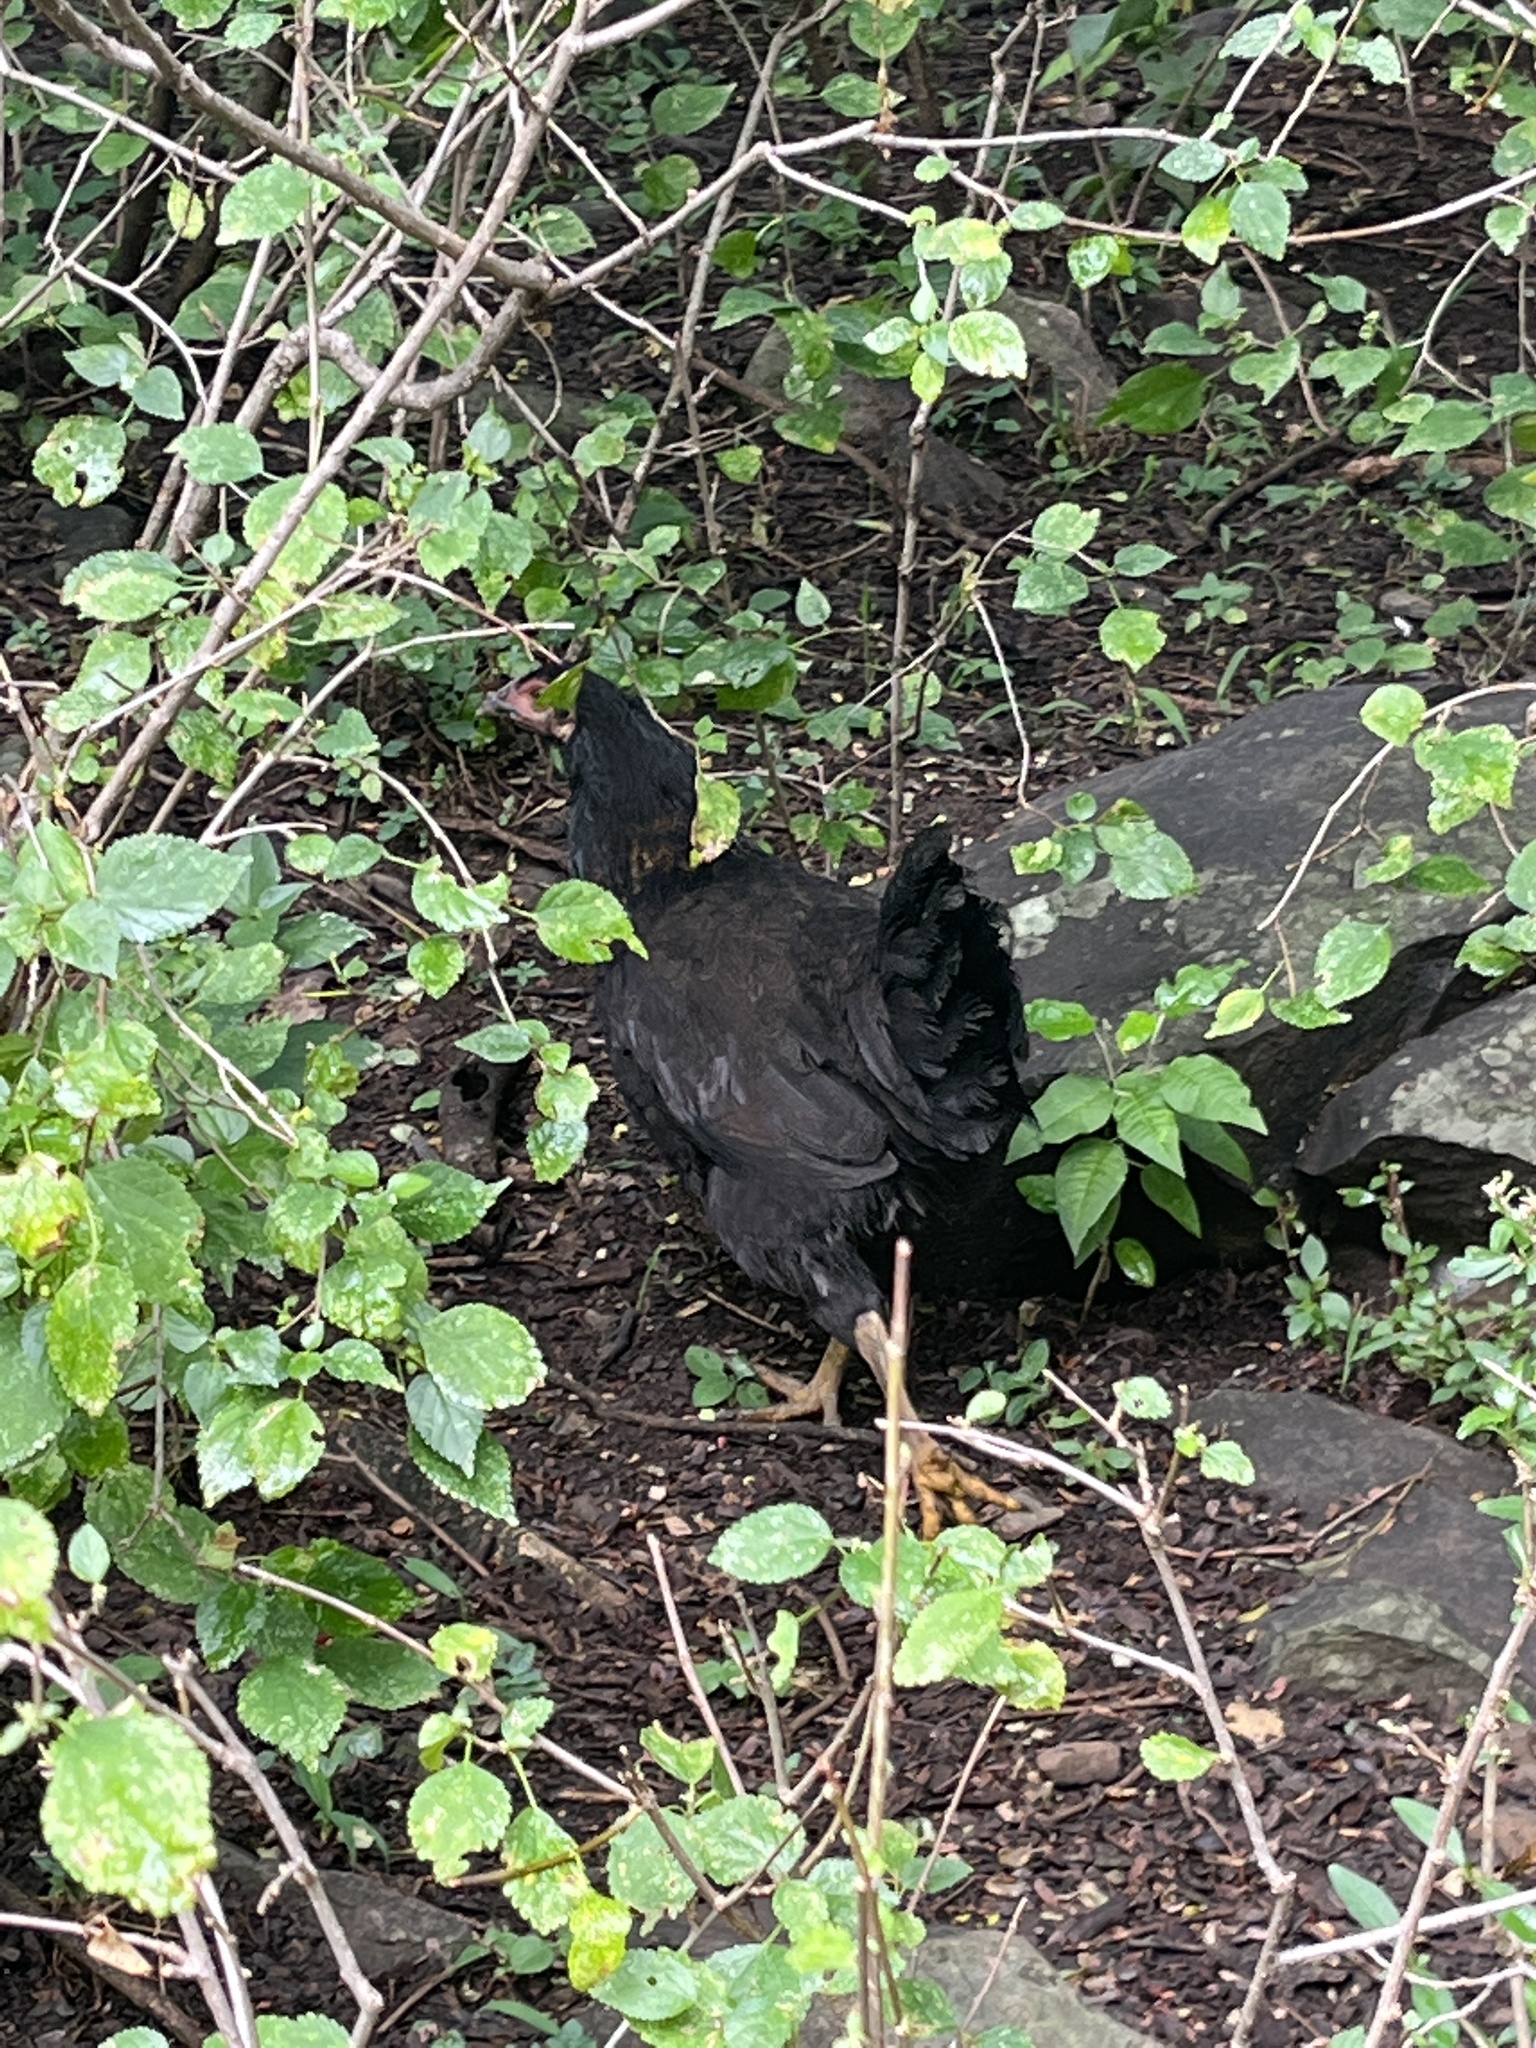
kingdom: Animalia
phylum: Chordata
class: Aves
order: Galliformes
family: Phasianidae
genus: Gallus
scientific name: Gallus gallus
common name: Red junglefowl
